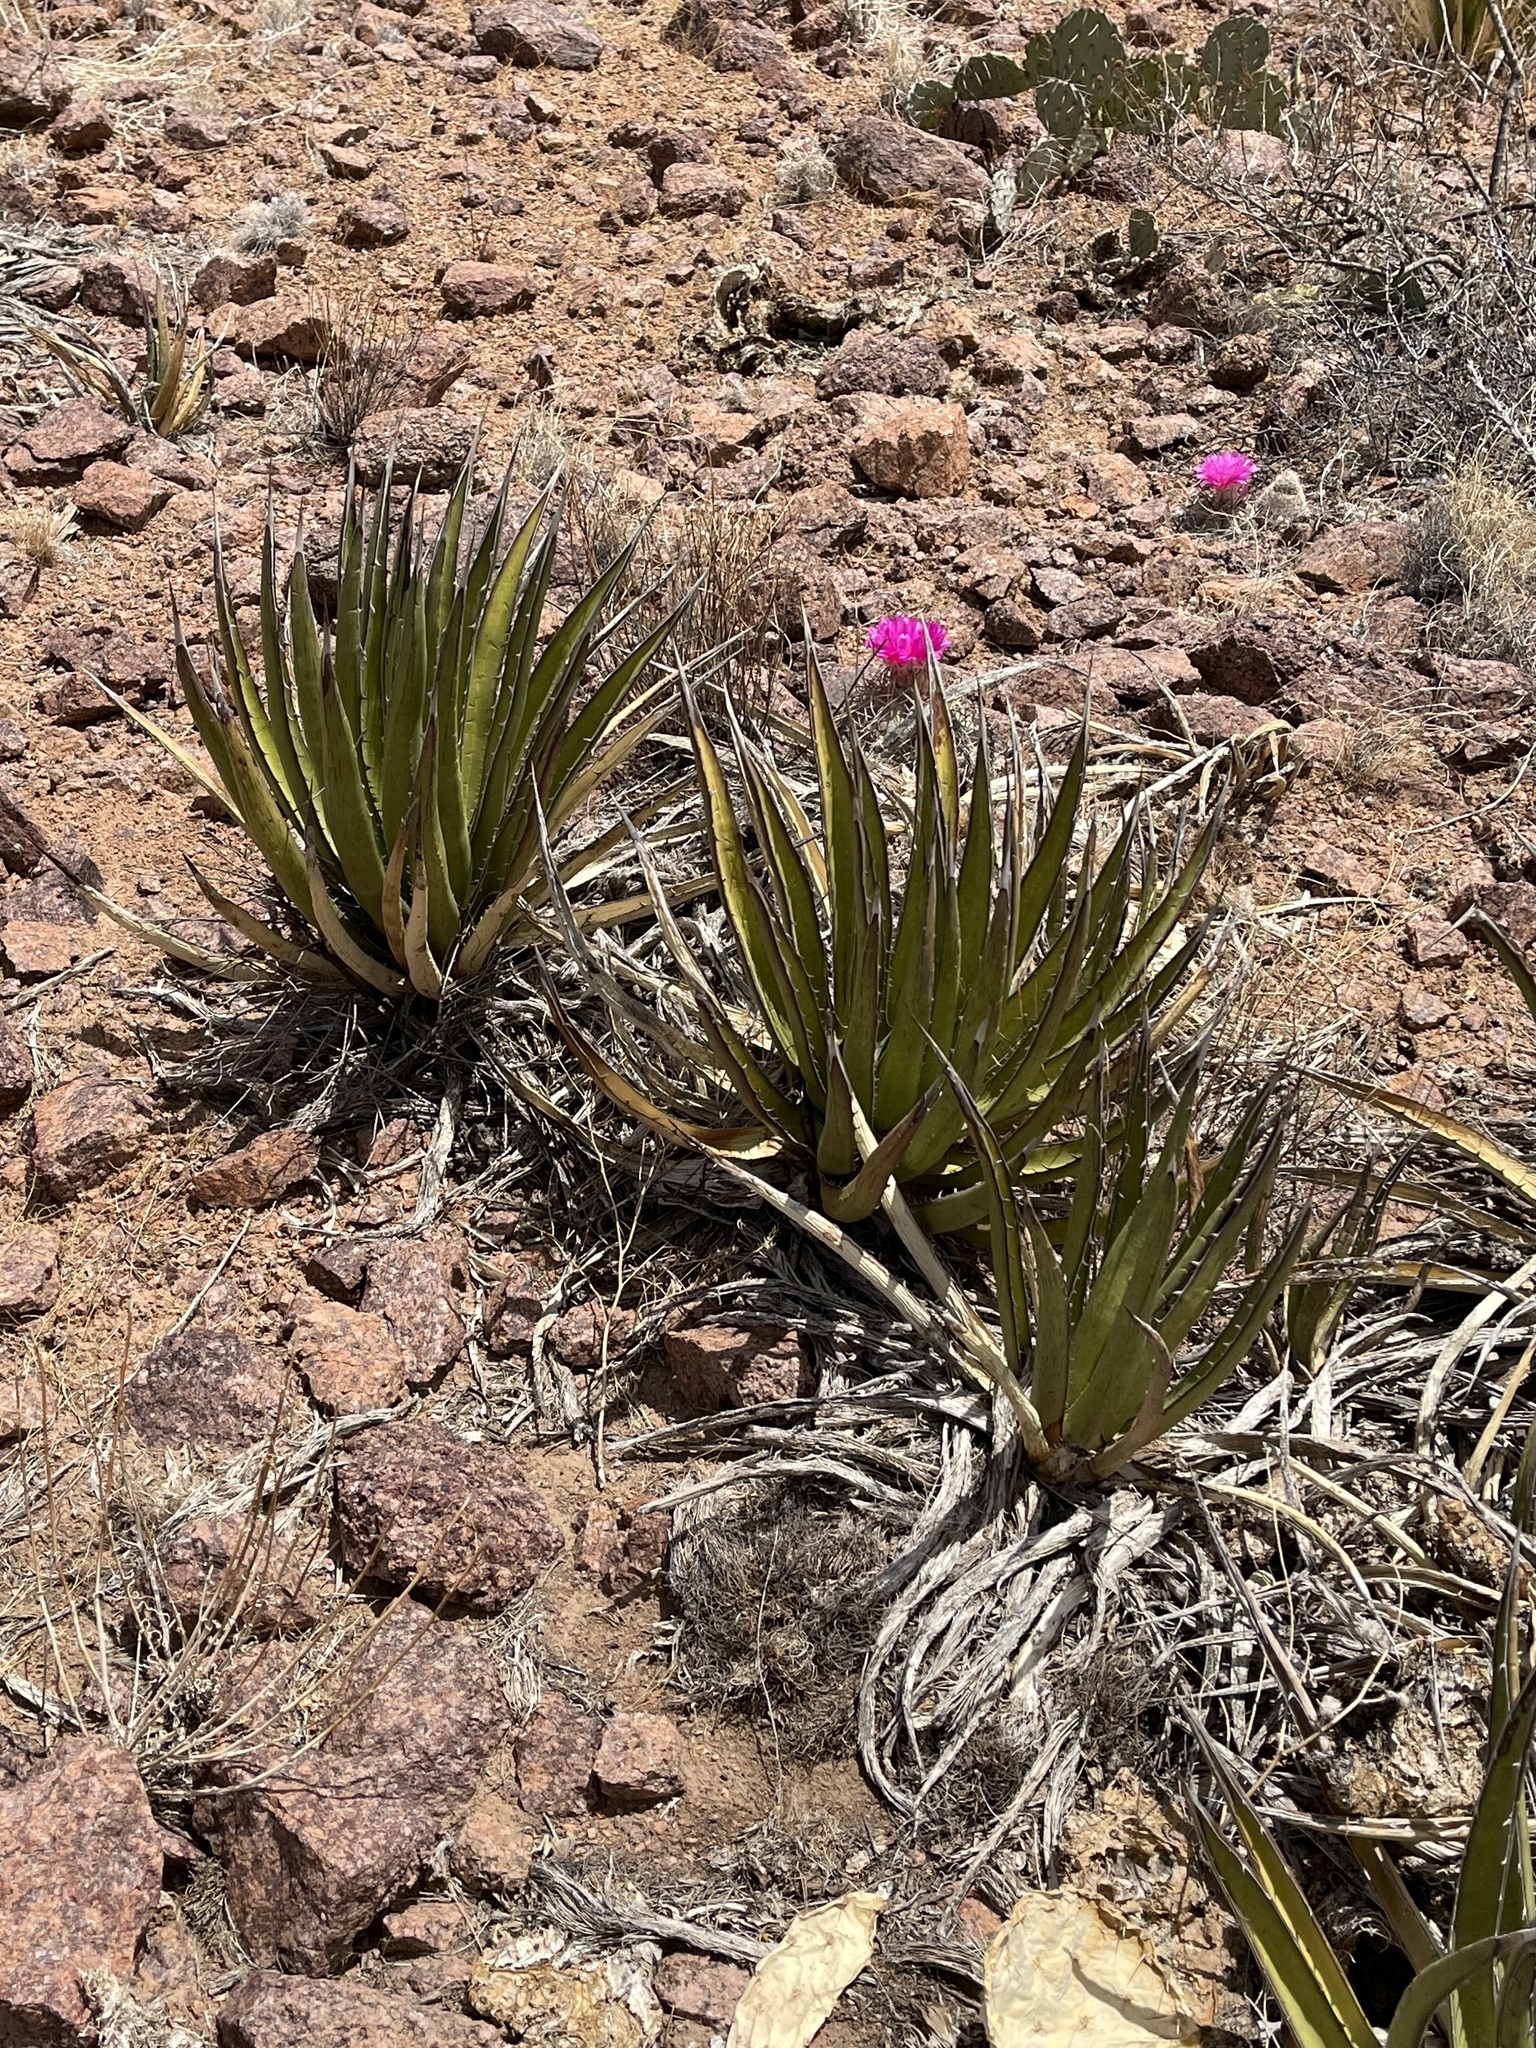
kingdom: Plantae
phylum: Tracheophyta
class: Liliopsida
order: Asparagales
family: Asparagaceae
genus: Agave
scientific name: Agave lechuguilla
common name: Lecheguilla agave
